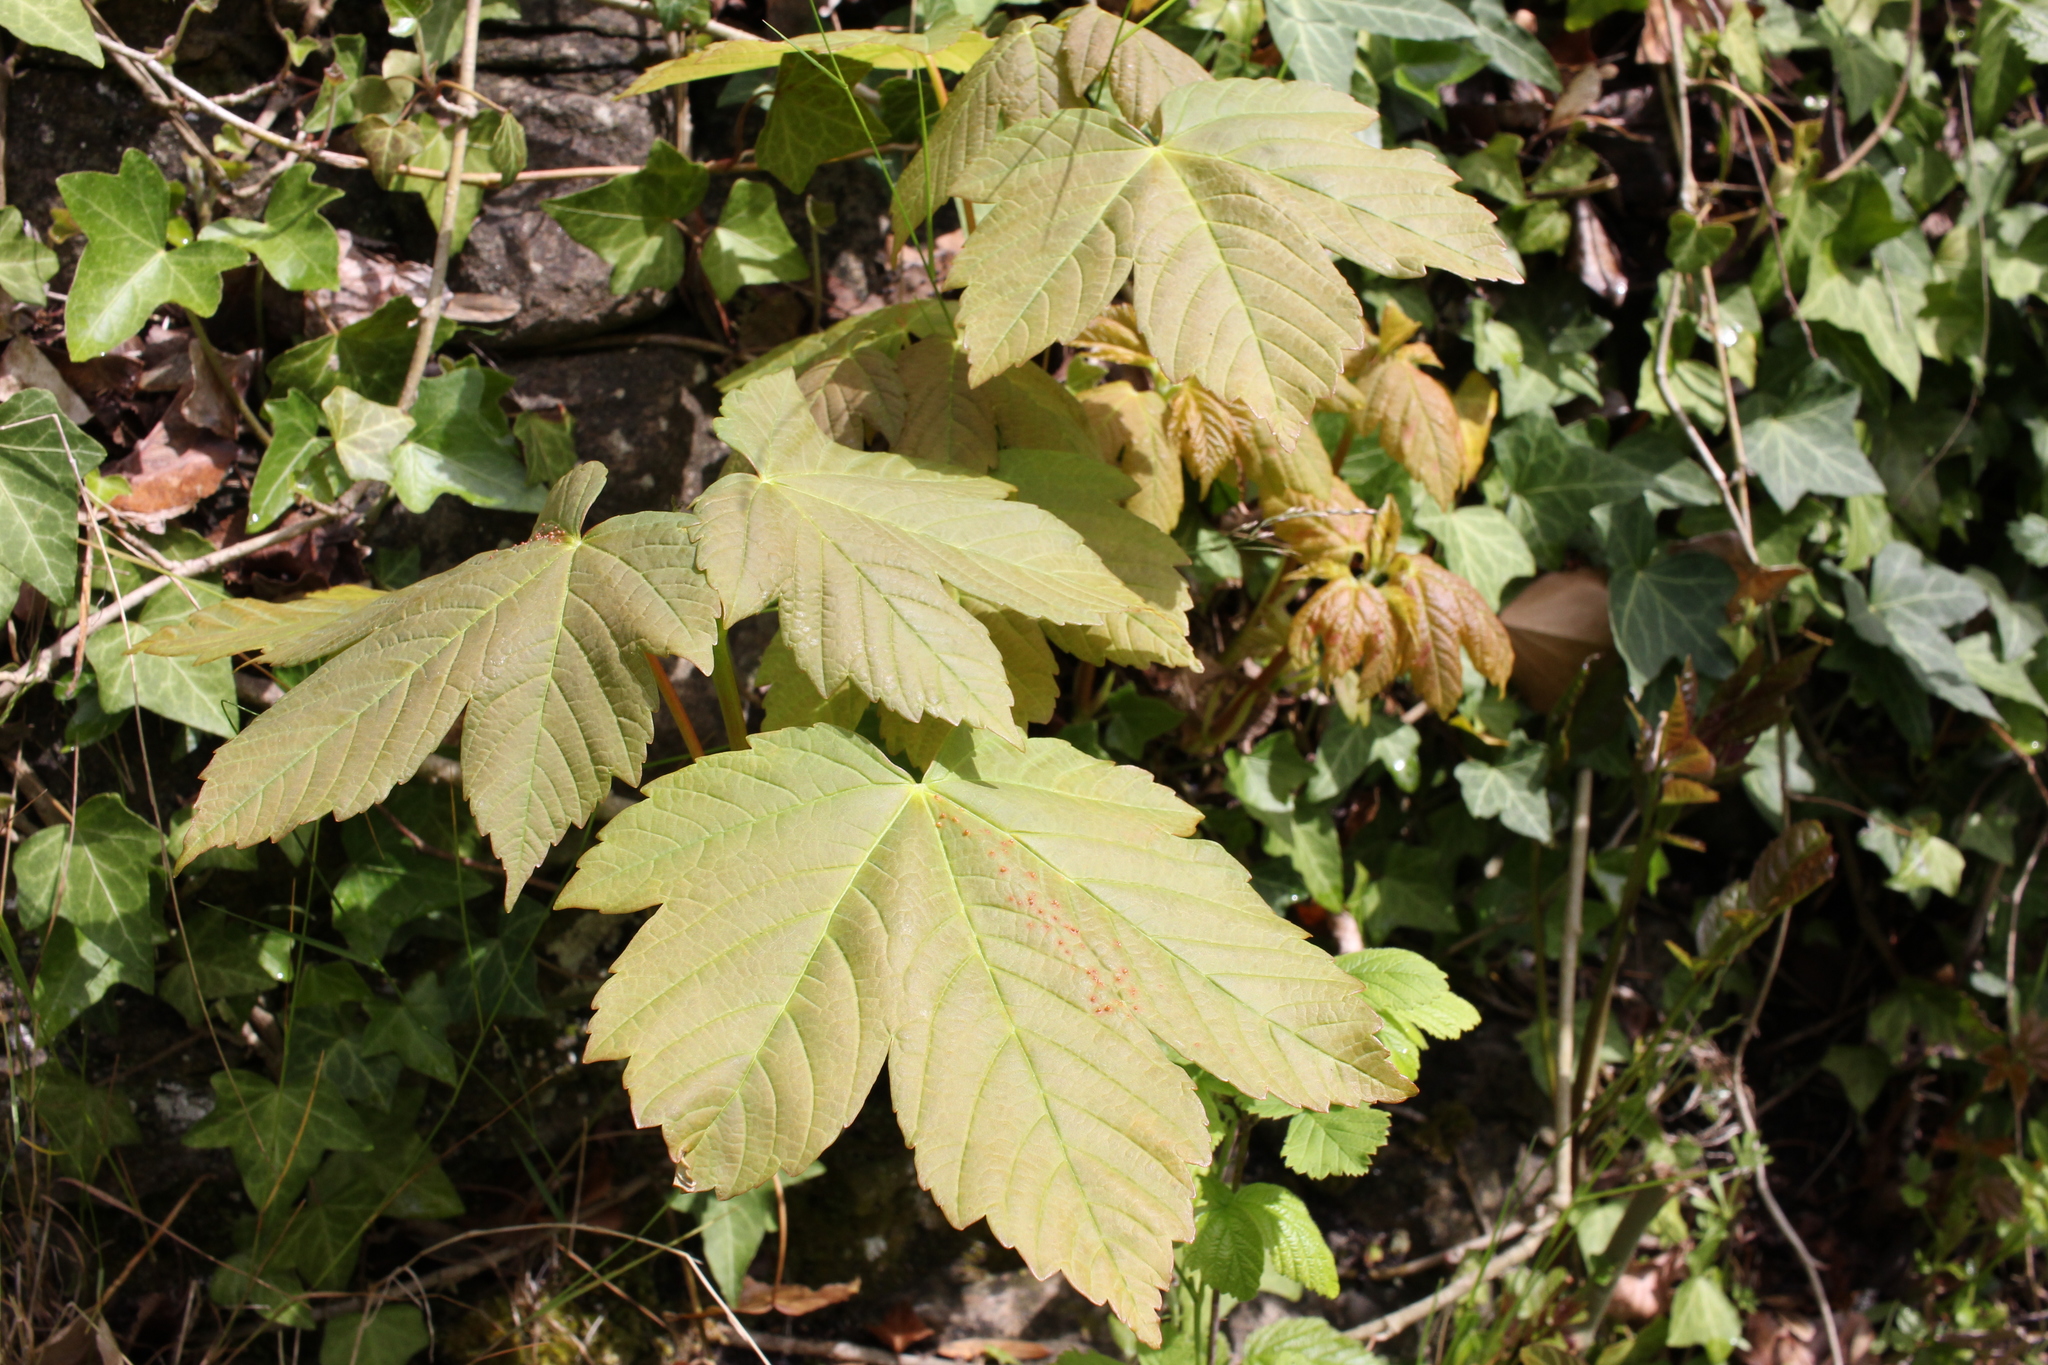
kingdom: Plantae
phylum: Tracheophyta
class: Magnoliopsida
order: Sapindales
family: Sapindaceae
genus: Acer
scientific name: Acer pseudoplatanus
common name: Sycamore
